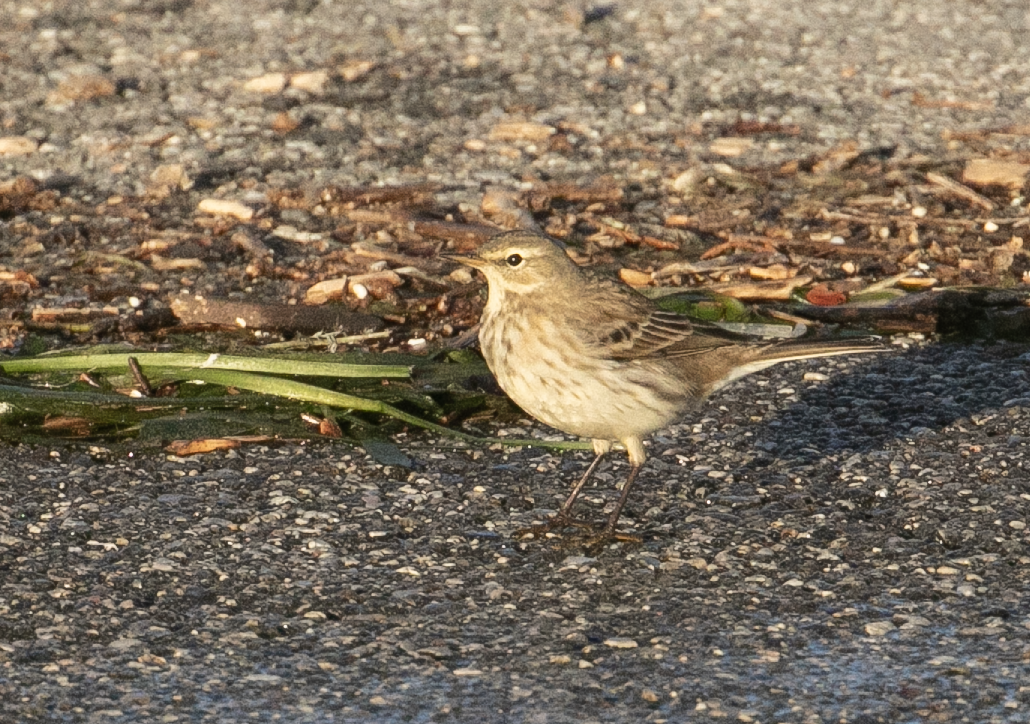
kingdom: Animalia
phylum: Chordata
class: Aves
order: Passeriformes
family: Motacillidae
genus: Anthus
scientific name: Anthus spinoletta
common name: Water pipit
